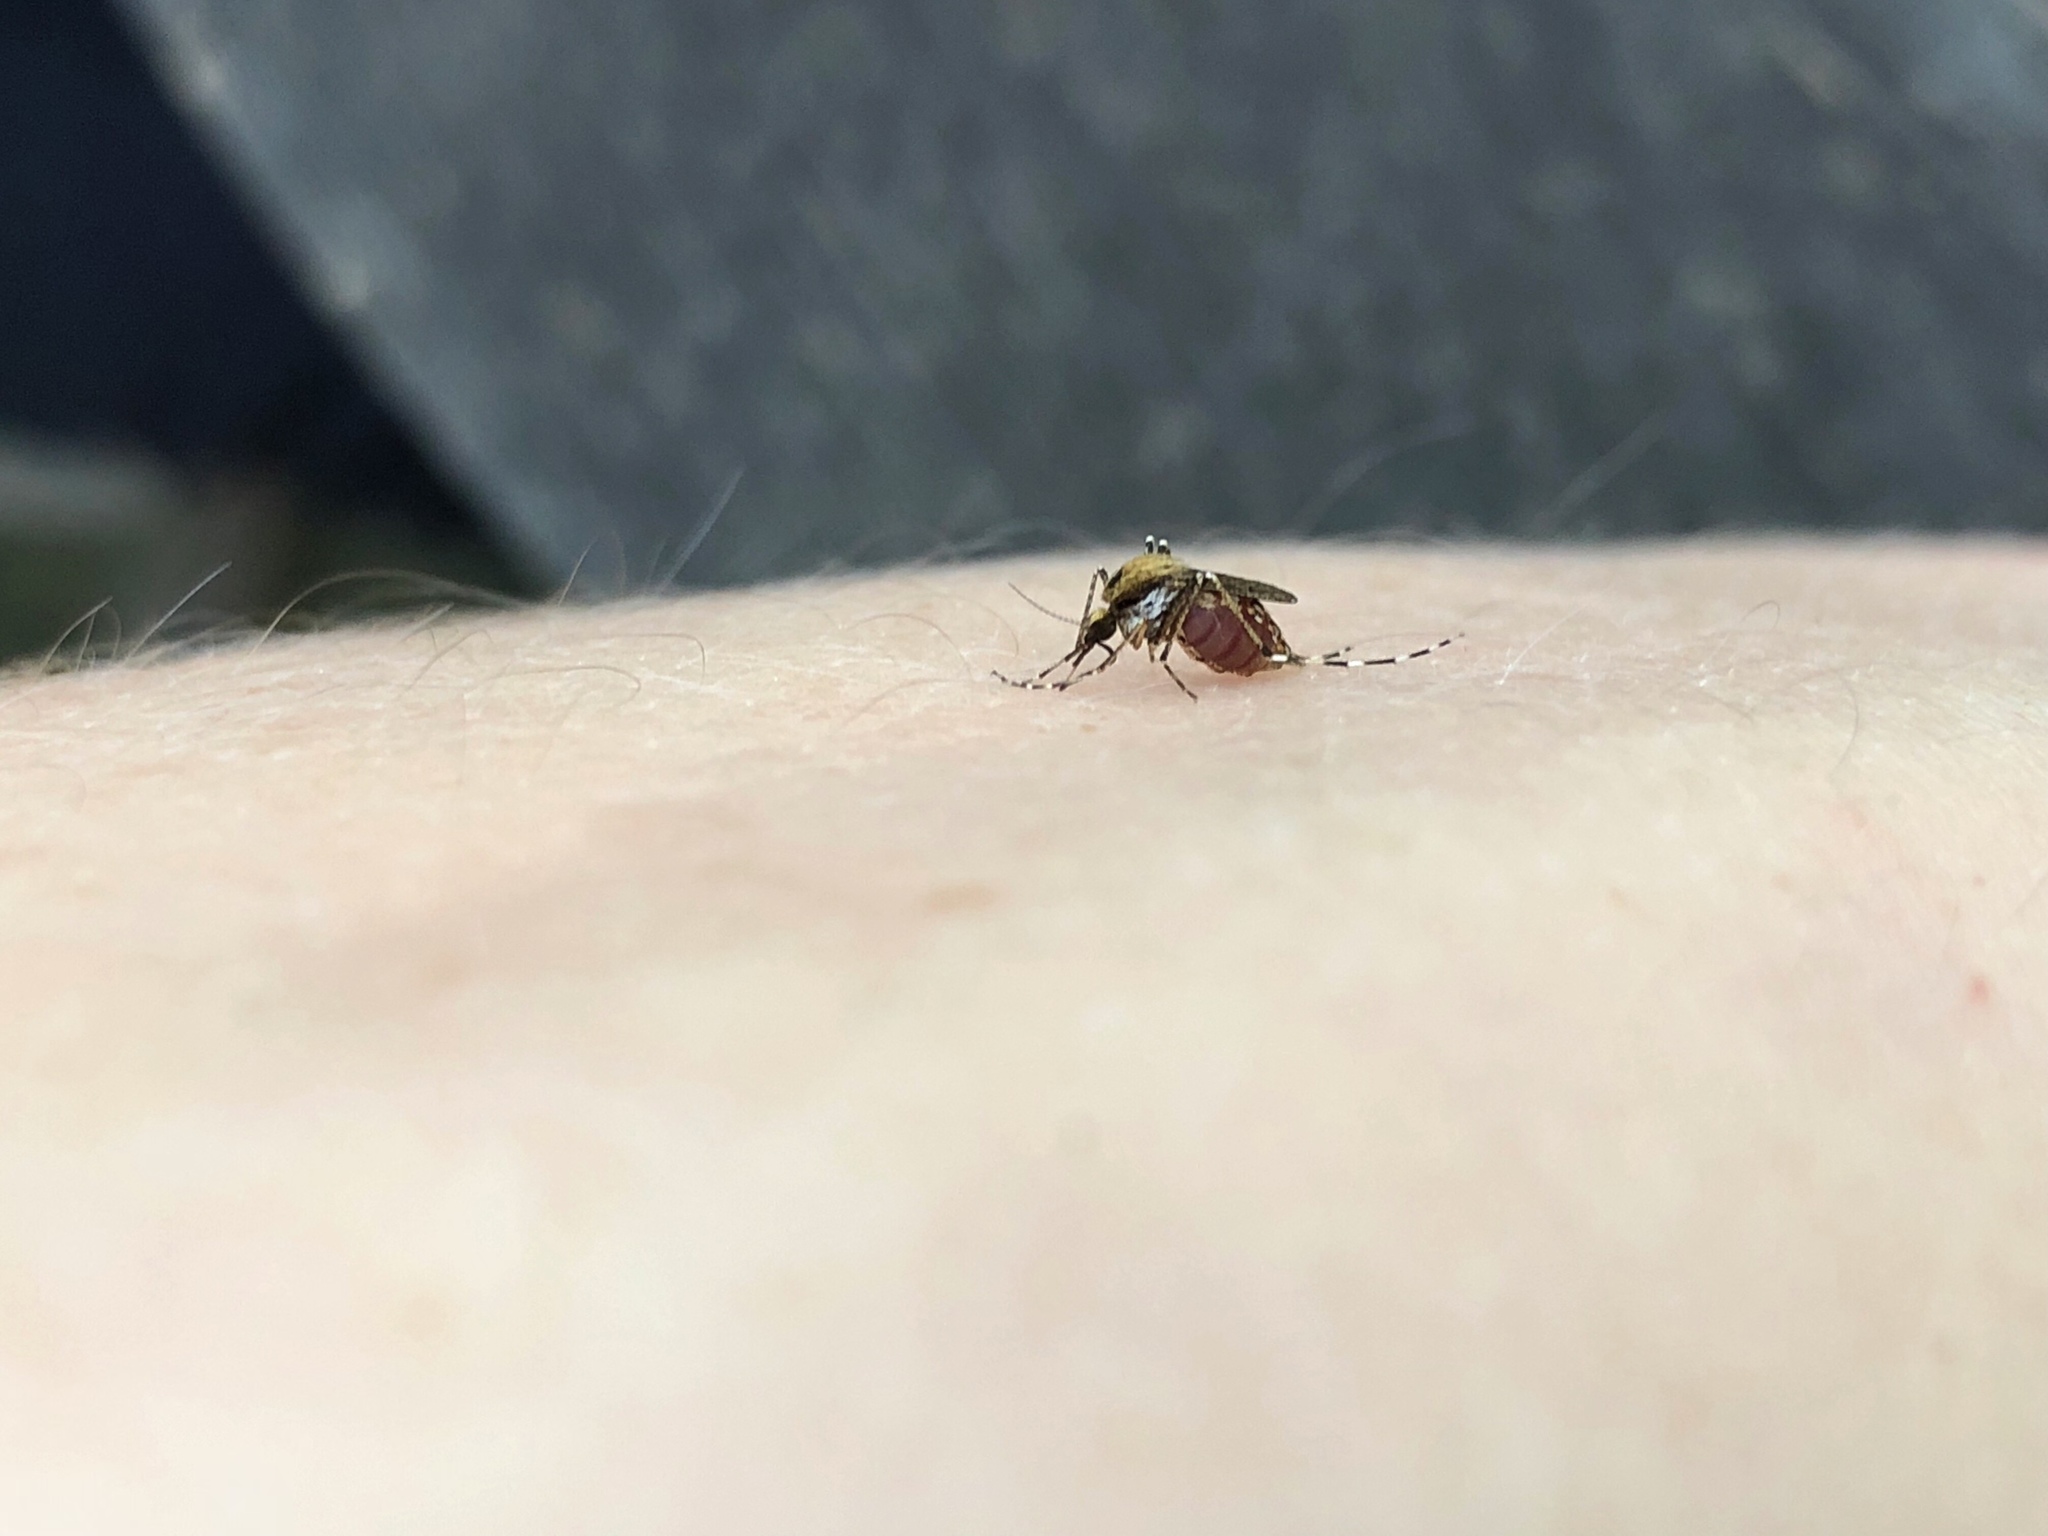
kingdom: Animalia
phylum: Arthropoda
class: Insecta
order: Diptera
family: Culicidae
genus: Aedes
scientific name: Aedes sollicitans
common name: Saltmarsh mosquito
